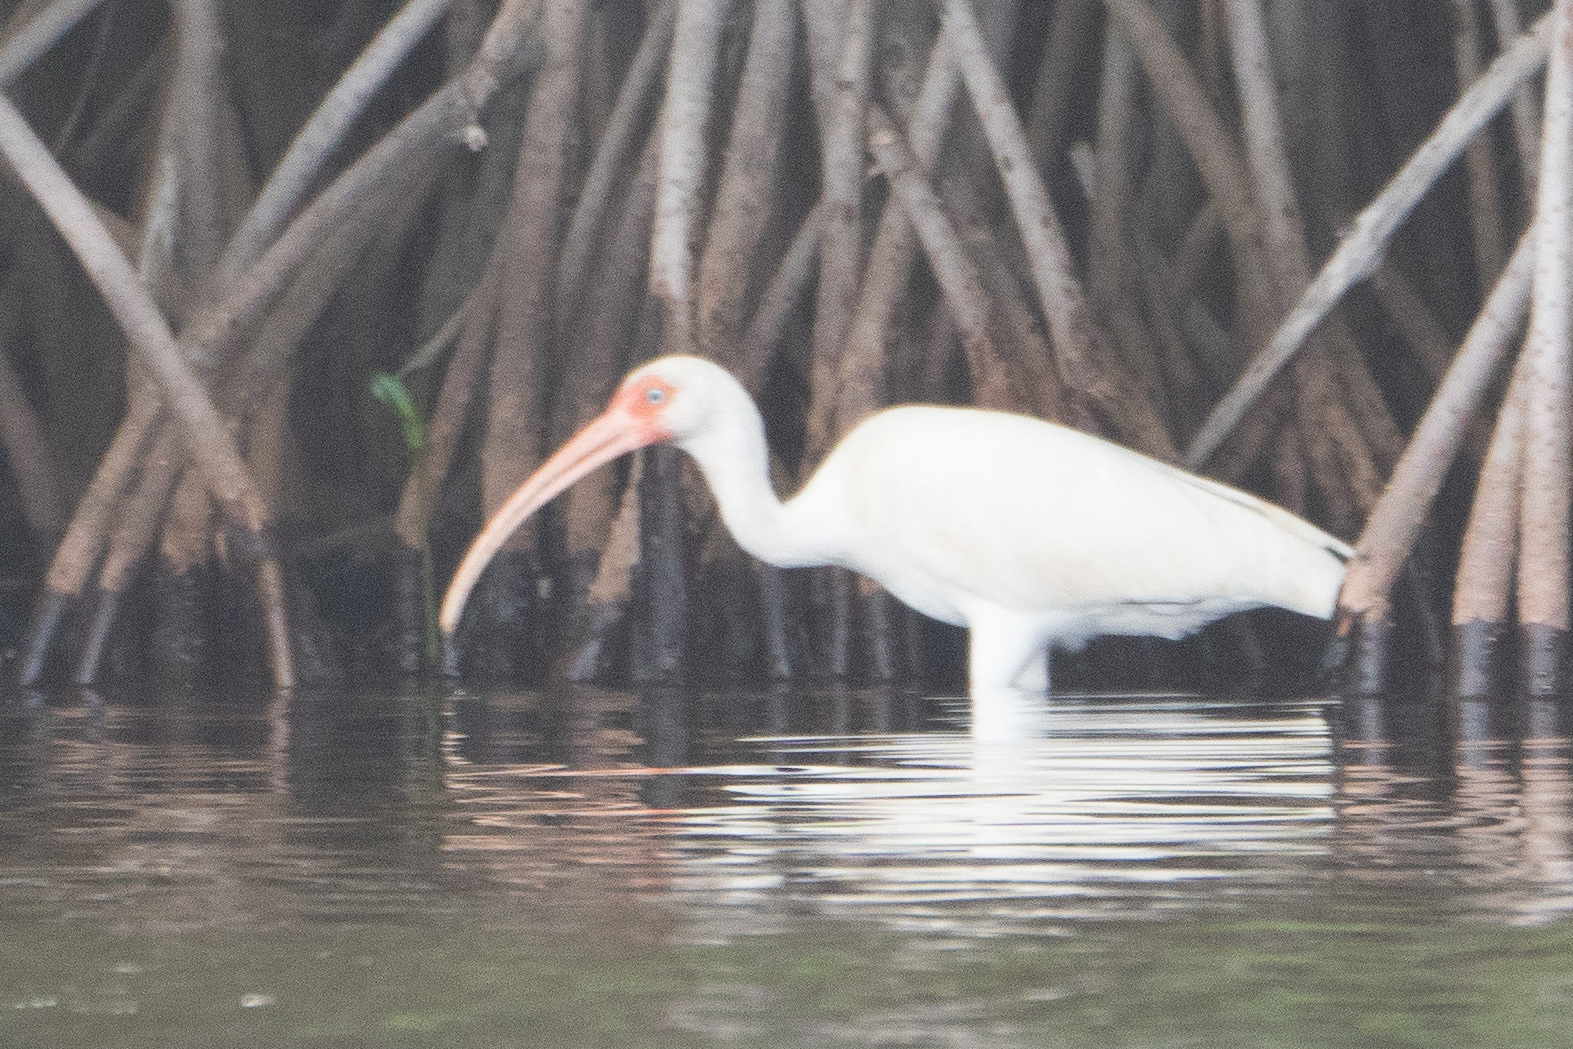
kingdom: Animalia
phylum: Chordata
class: Aves
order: Pelecaniformes
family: Threskiornithidae
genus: Eudocimus
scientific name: Eudocimus albus
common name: White ibis
